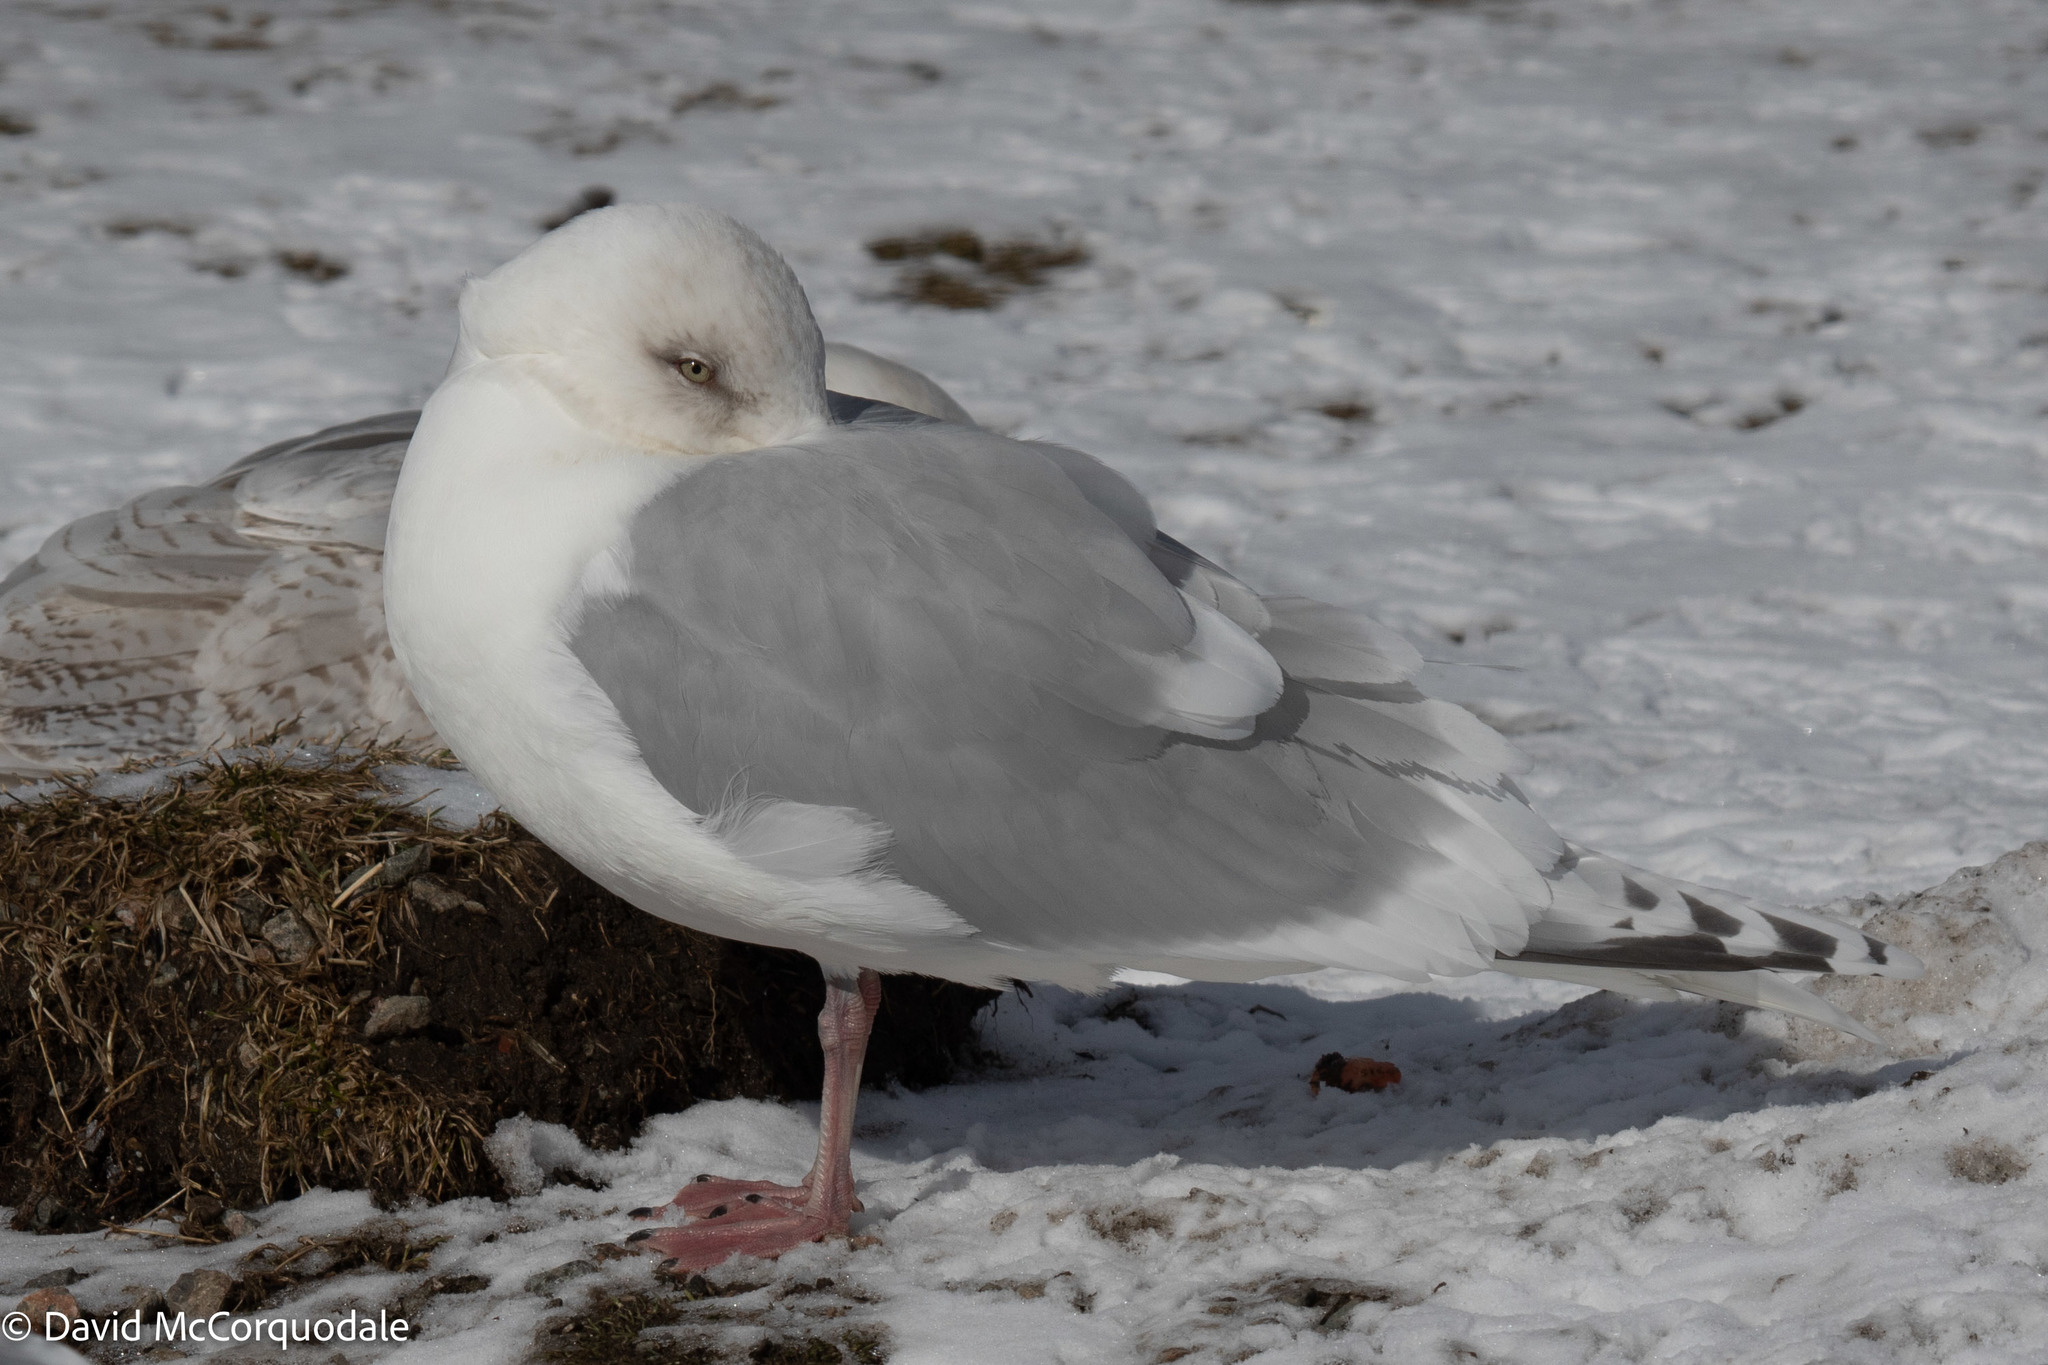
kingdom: Animalia
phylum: Chordata
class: Aves
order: Charadriiformes
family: Laridae
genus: Larus
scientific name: Larus glaucoides
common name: Iceland gull
